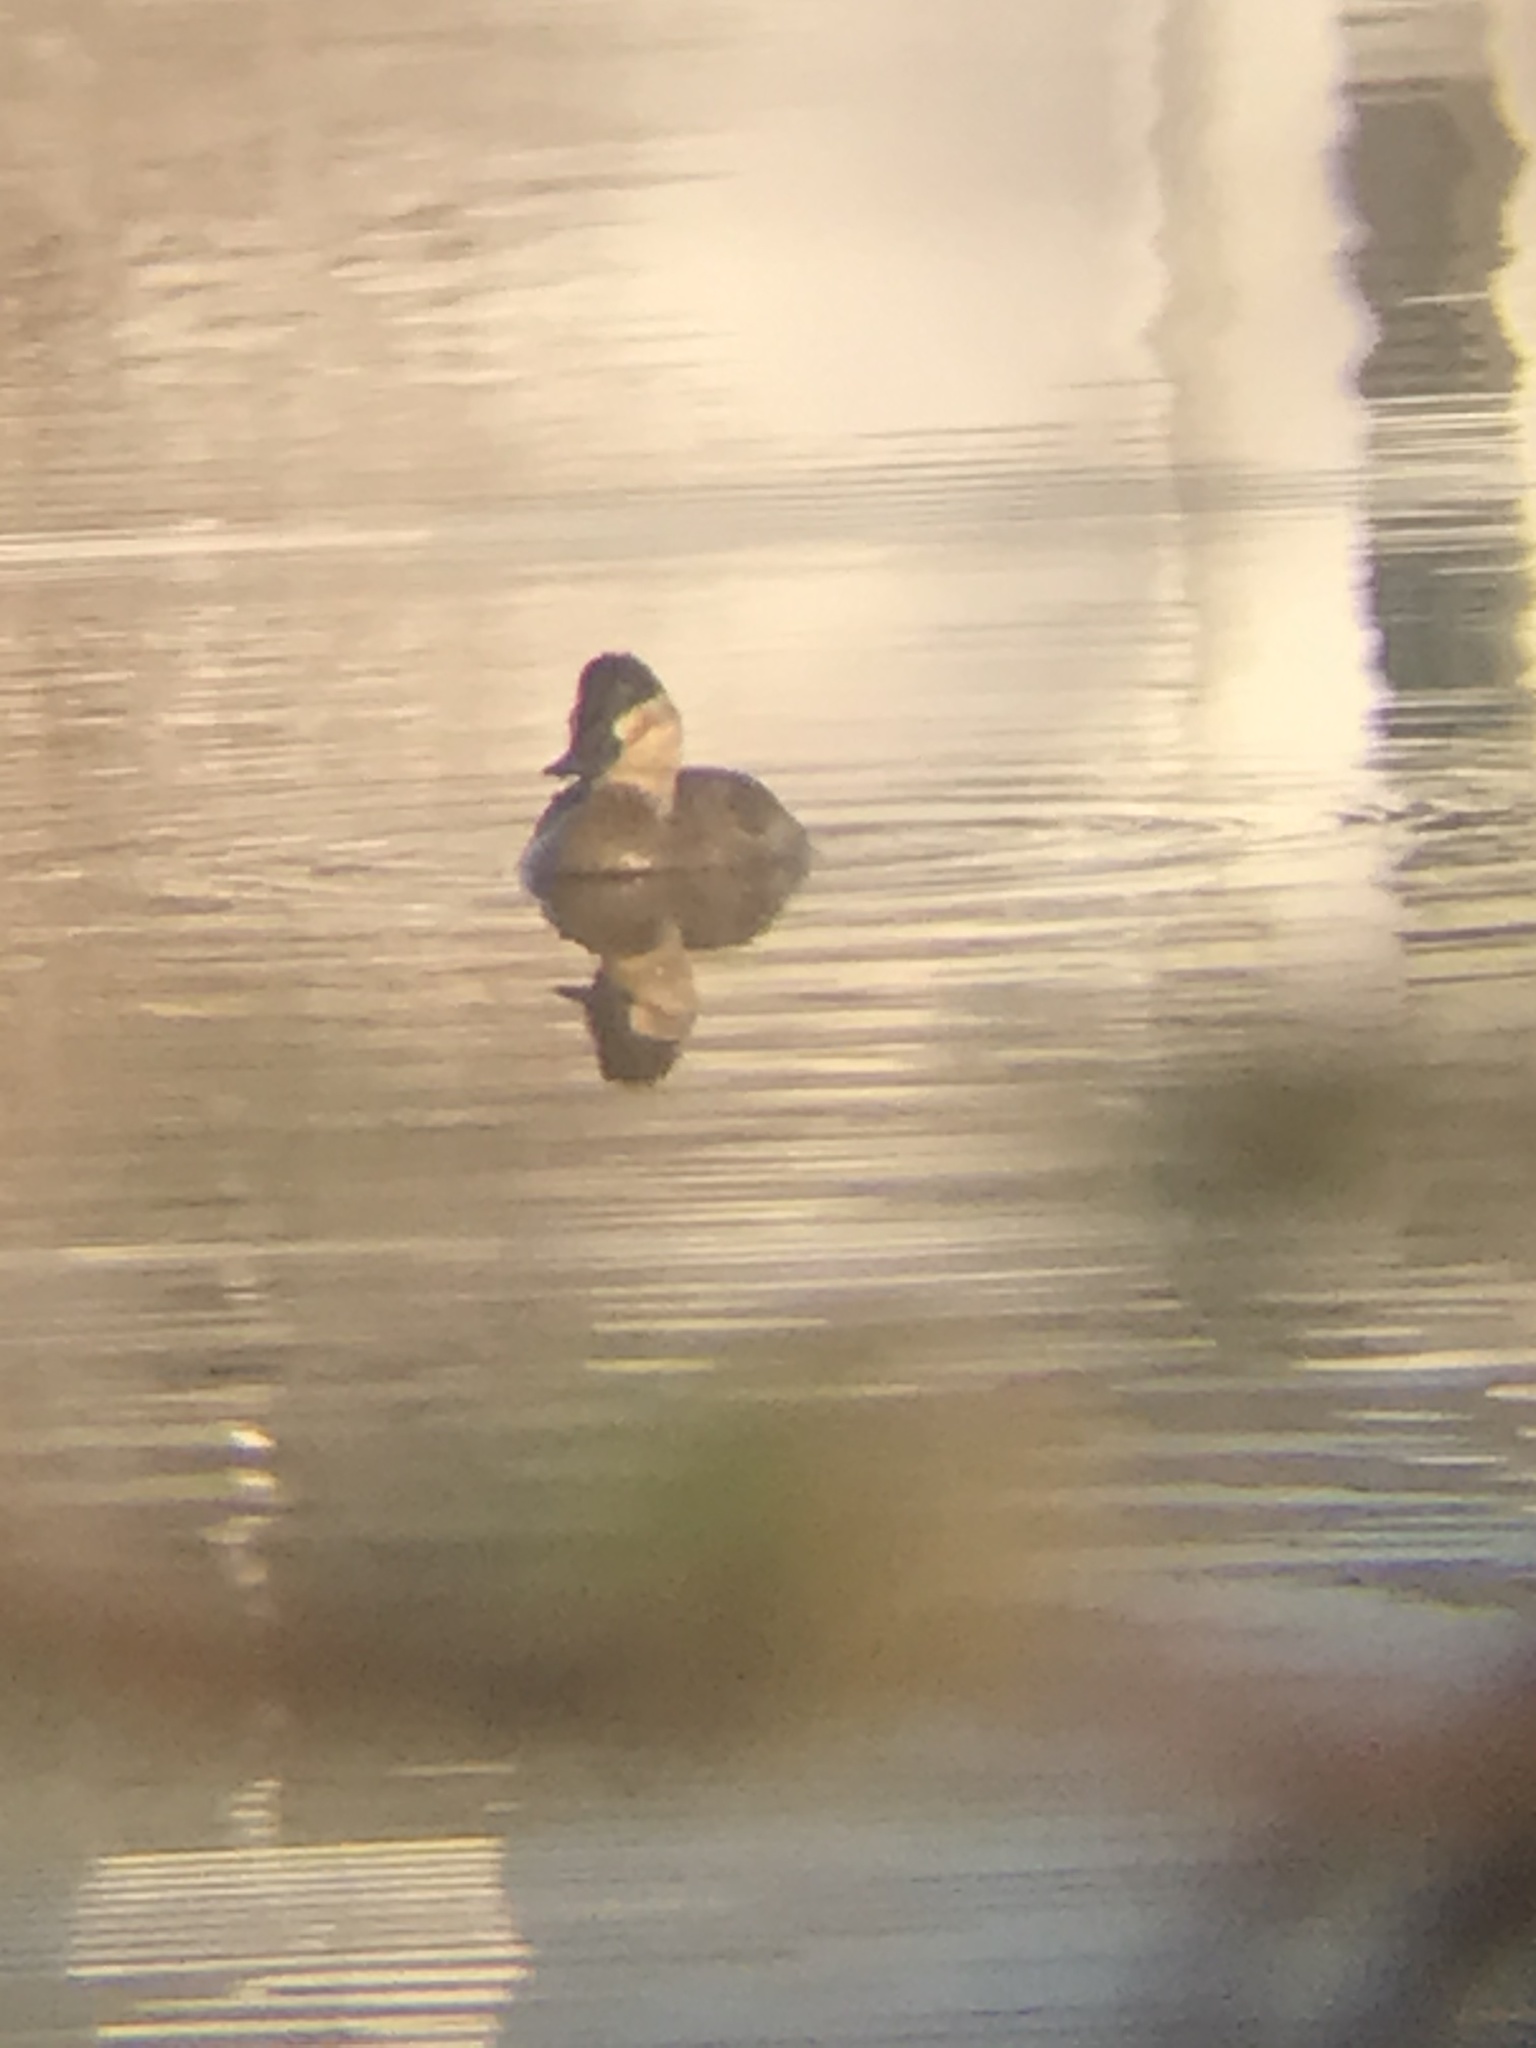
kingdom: Animalia
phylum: Chordata
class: Aves
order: Anseriformes
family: Anatidae
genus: Oxyura
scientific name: Oxyura jamaicensis
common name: Ruddy duck
